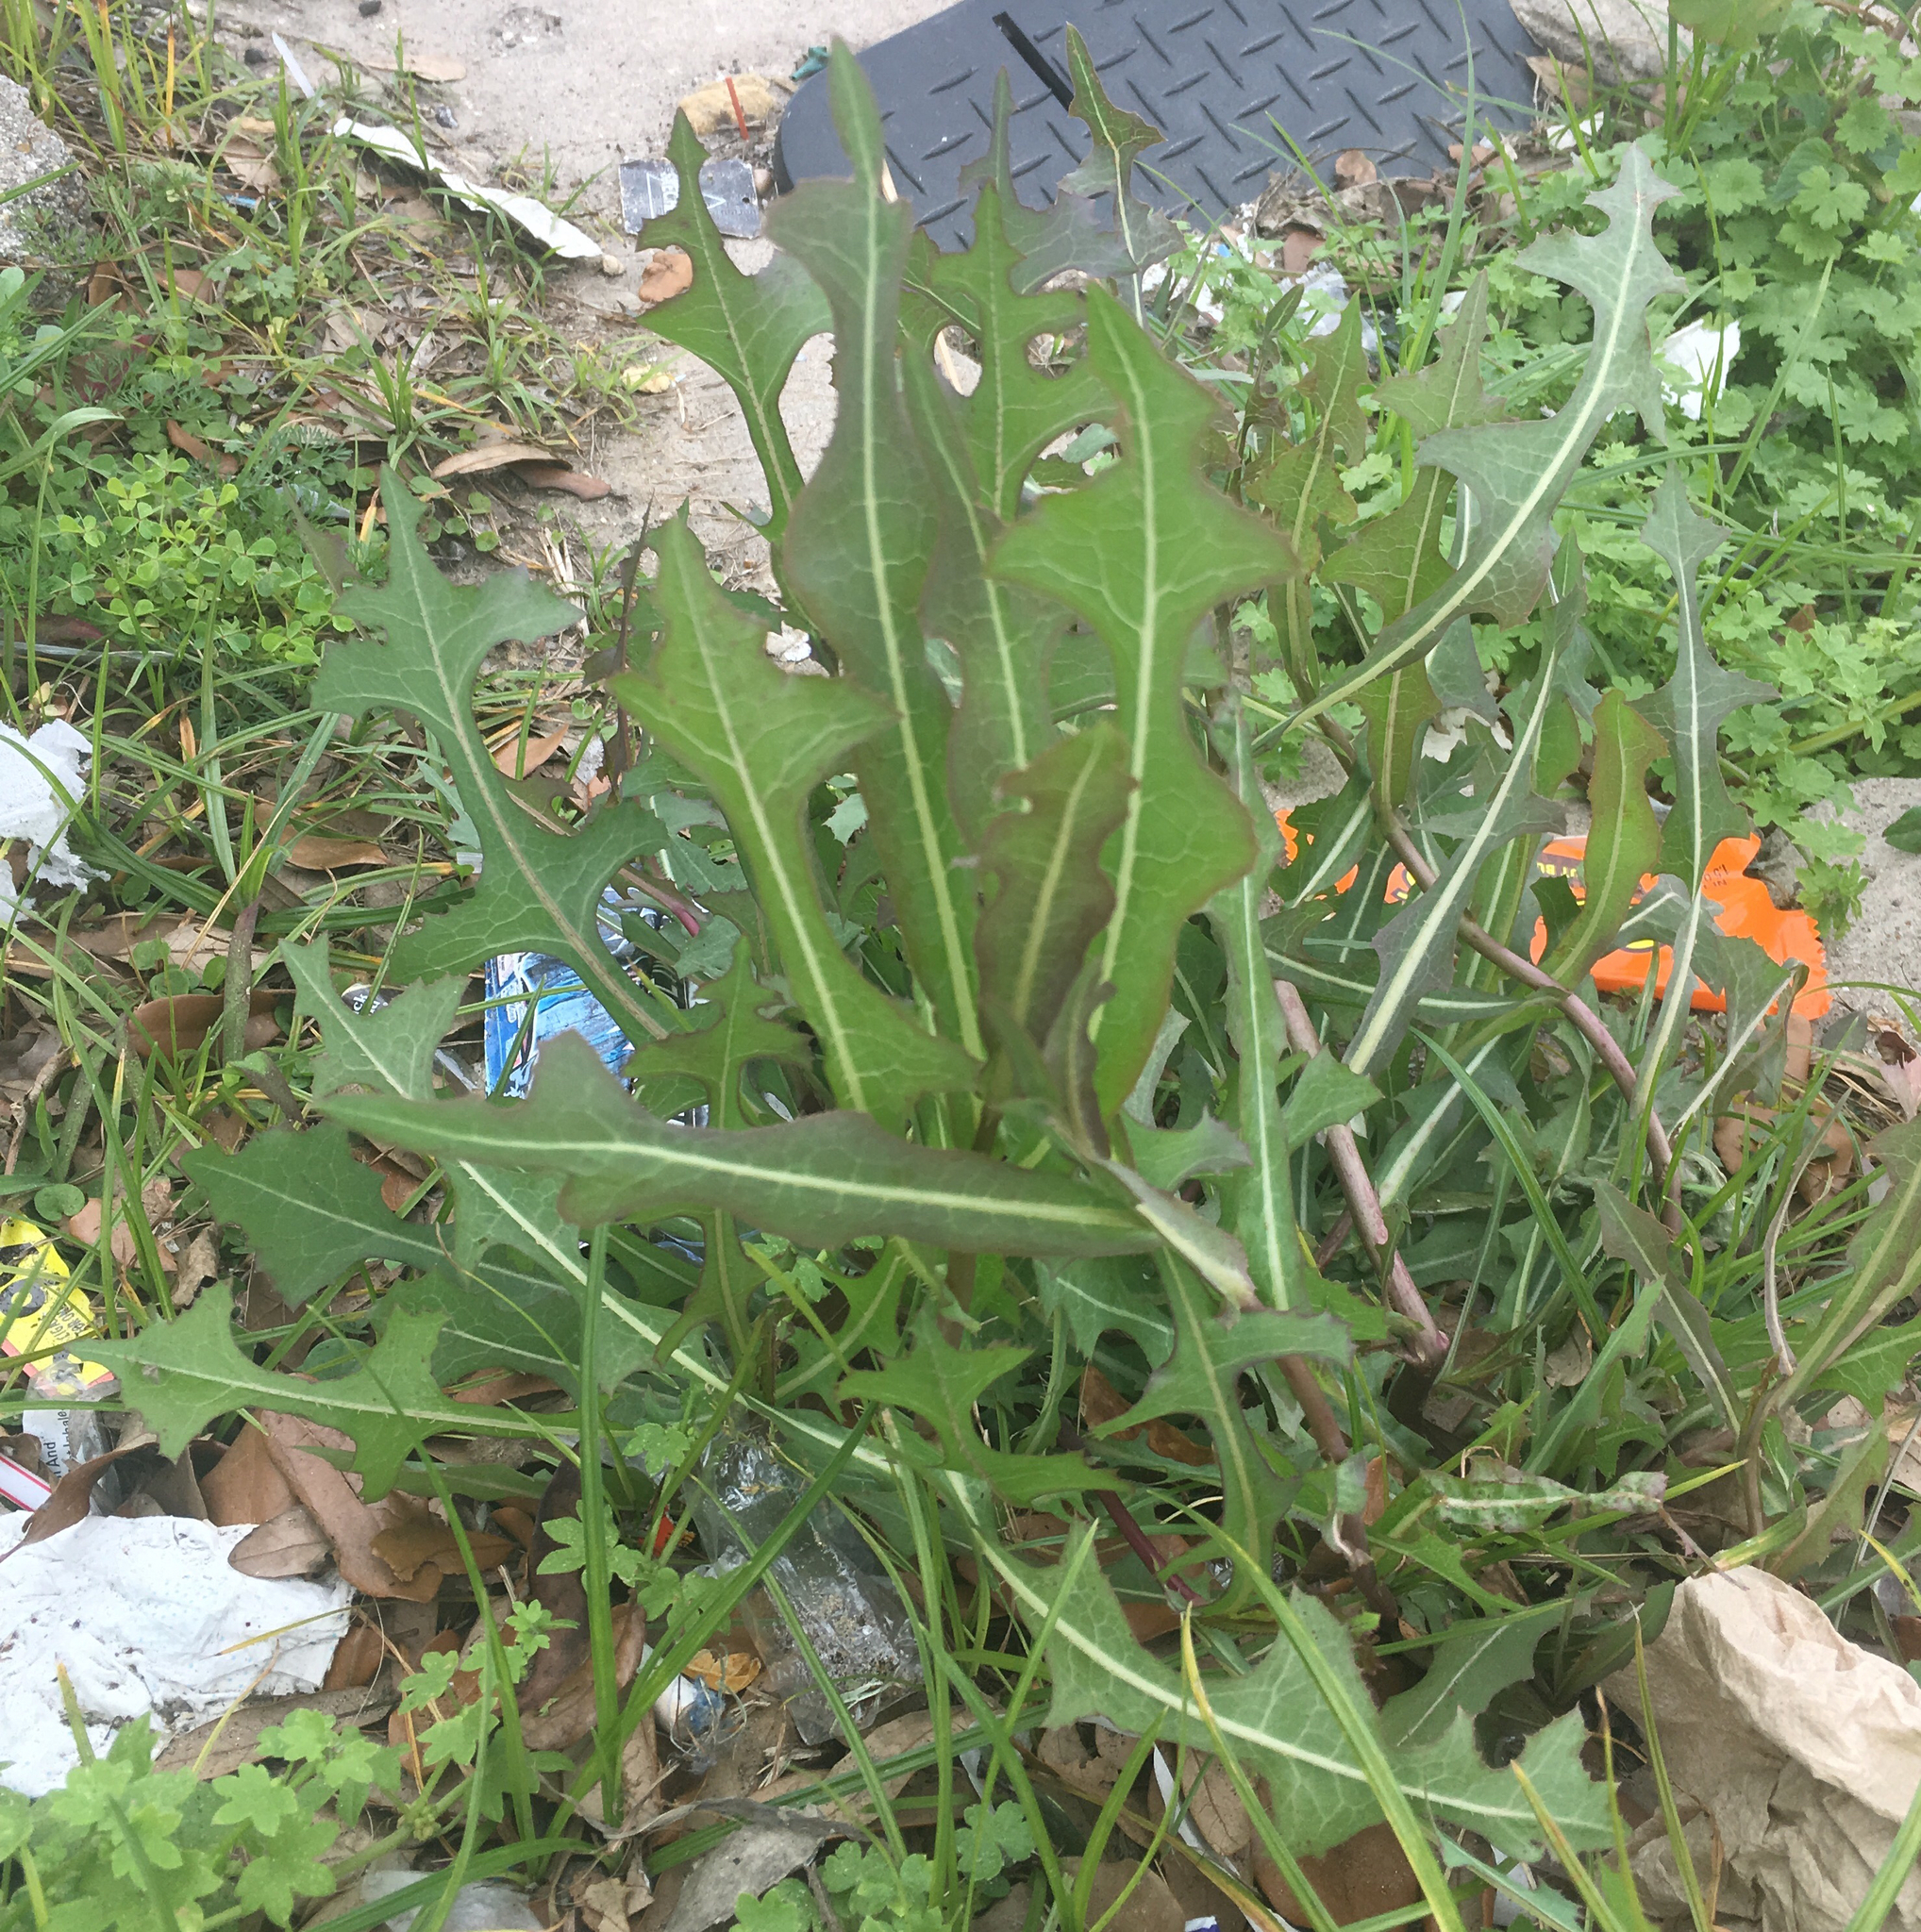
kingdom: Plantae
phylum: Tracheophyta
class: Magnoliopsida
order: Asterales
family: Asteraceae
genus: Lactuca
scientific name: Lactuca serriola
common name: Prickly lettuce
